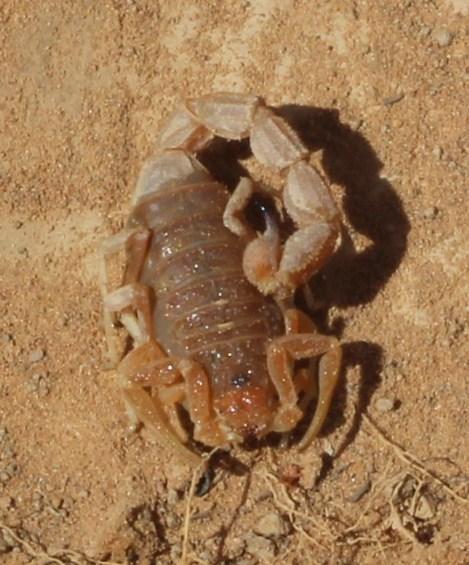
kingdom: Animalia
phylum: Arthropoda
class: Arachnida
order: Scorpiones
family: Buthidae
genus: Parabuthus
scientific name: Parabuthus planicauda
